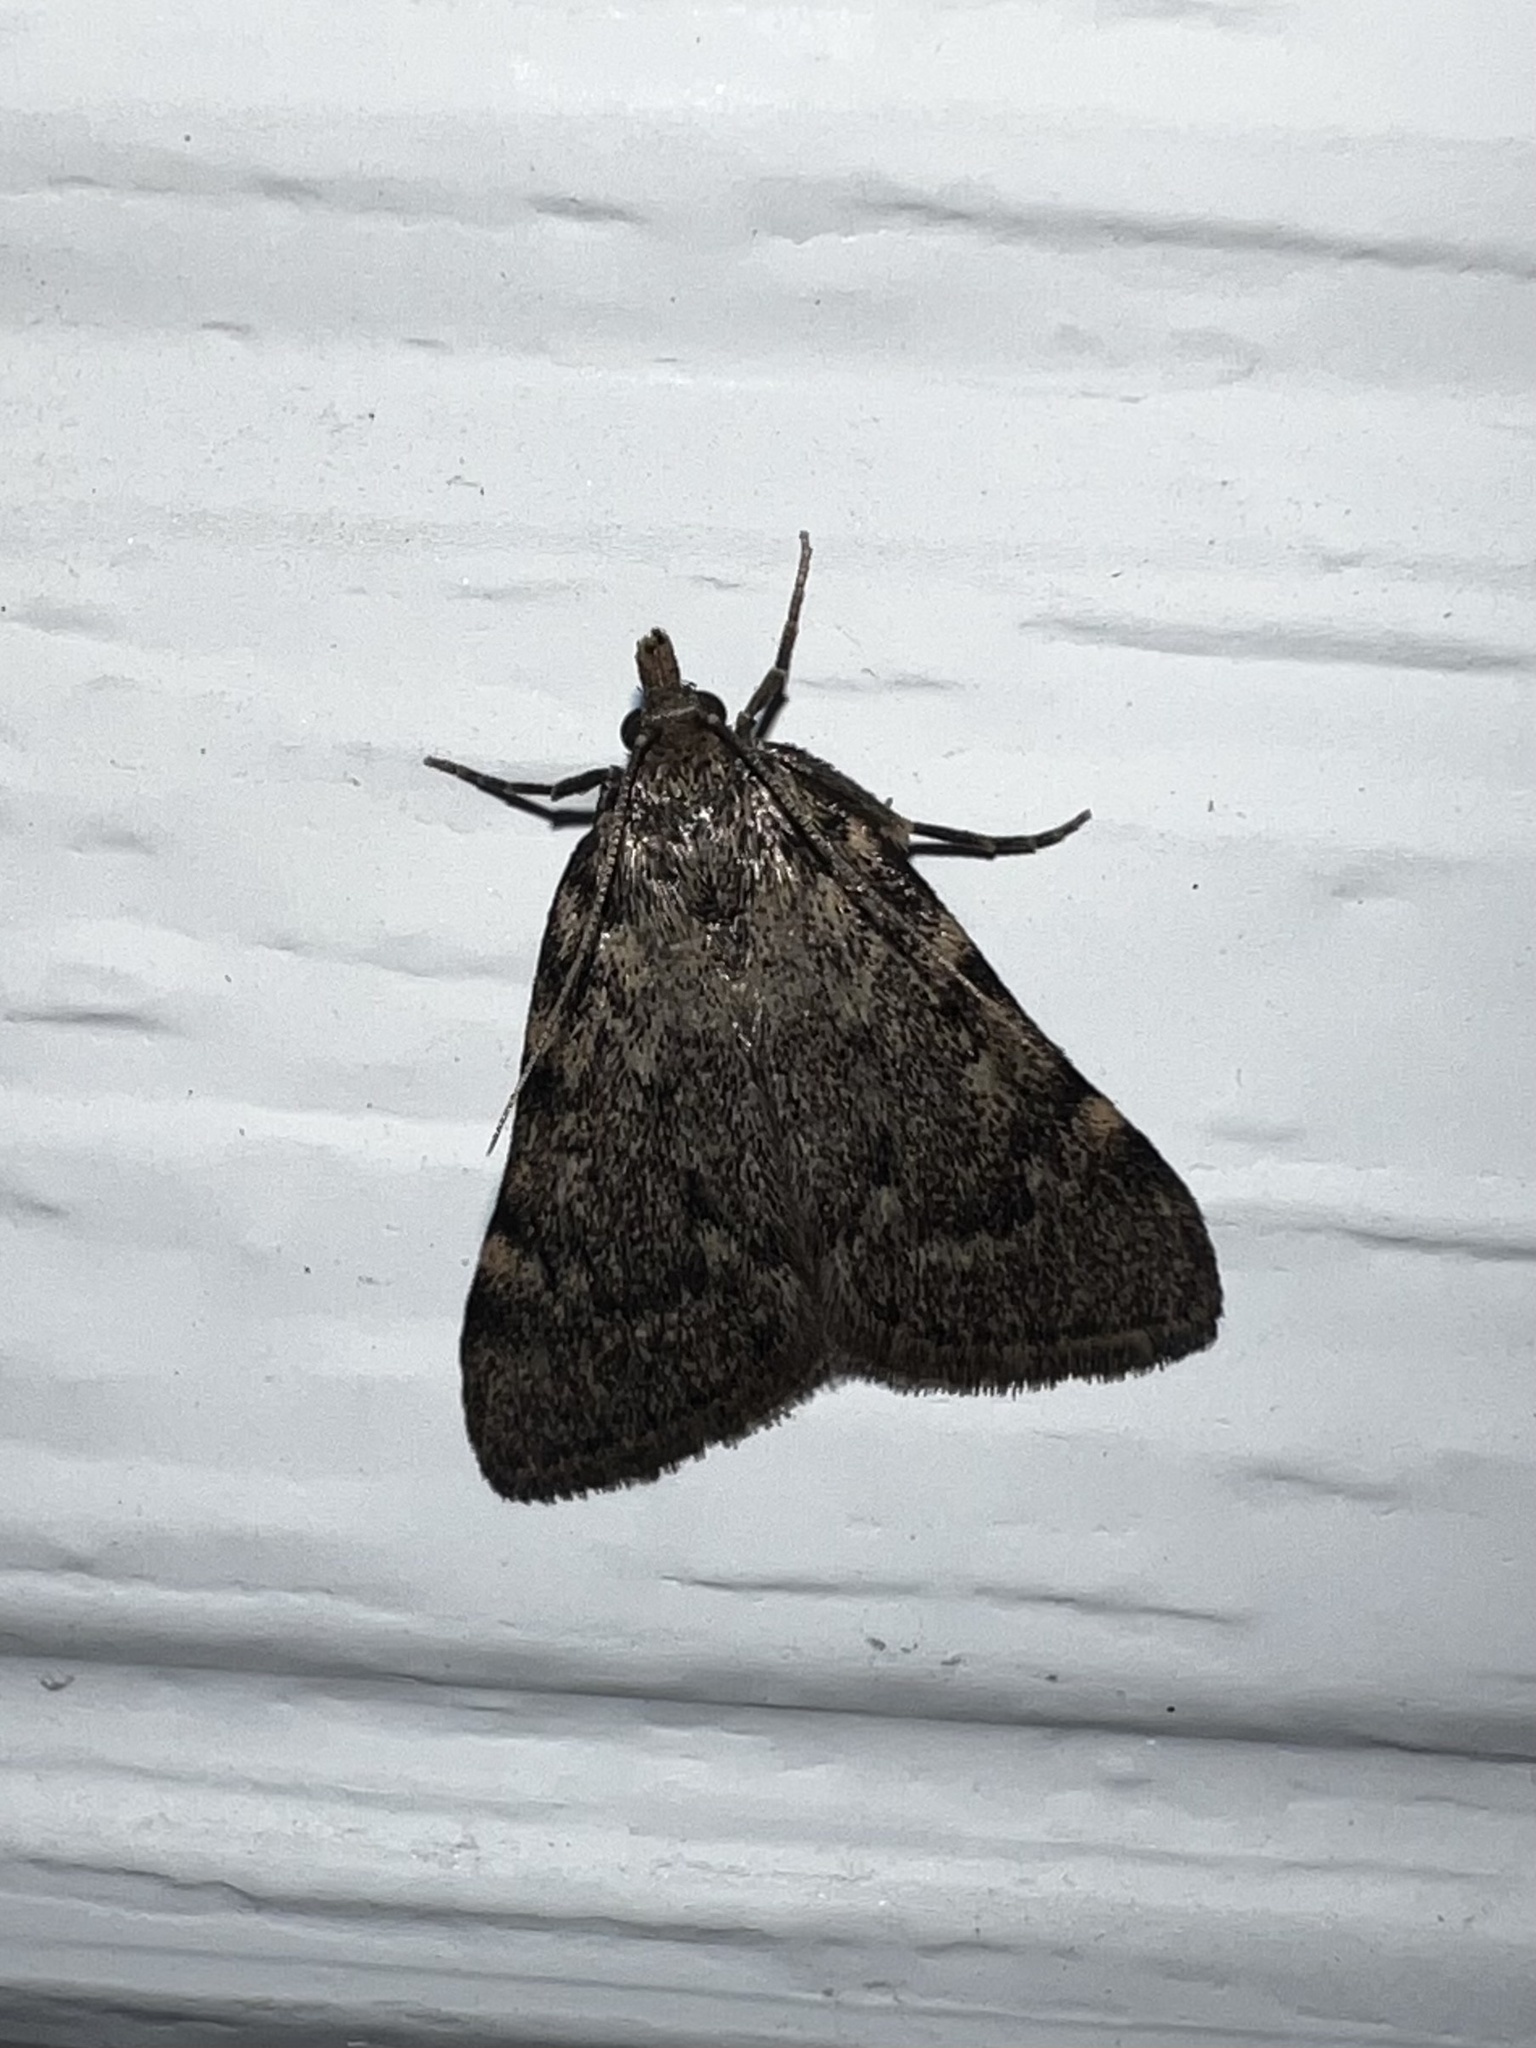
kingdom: Animalia
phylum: Arthropoda
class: Insecta
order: Lepidoptera
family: Pyralidae
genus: Aglossa
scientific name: Aglossa pinguinalis
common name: Large tabby
